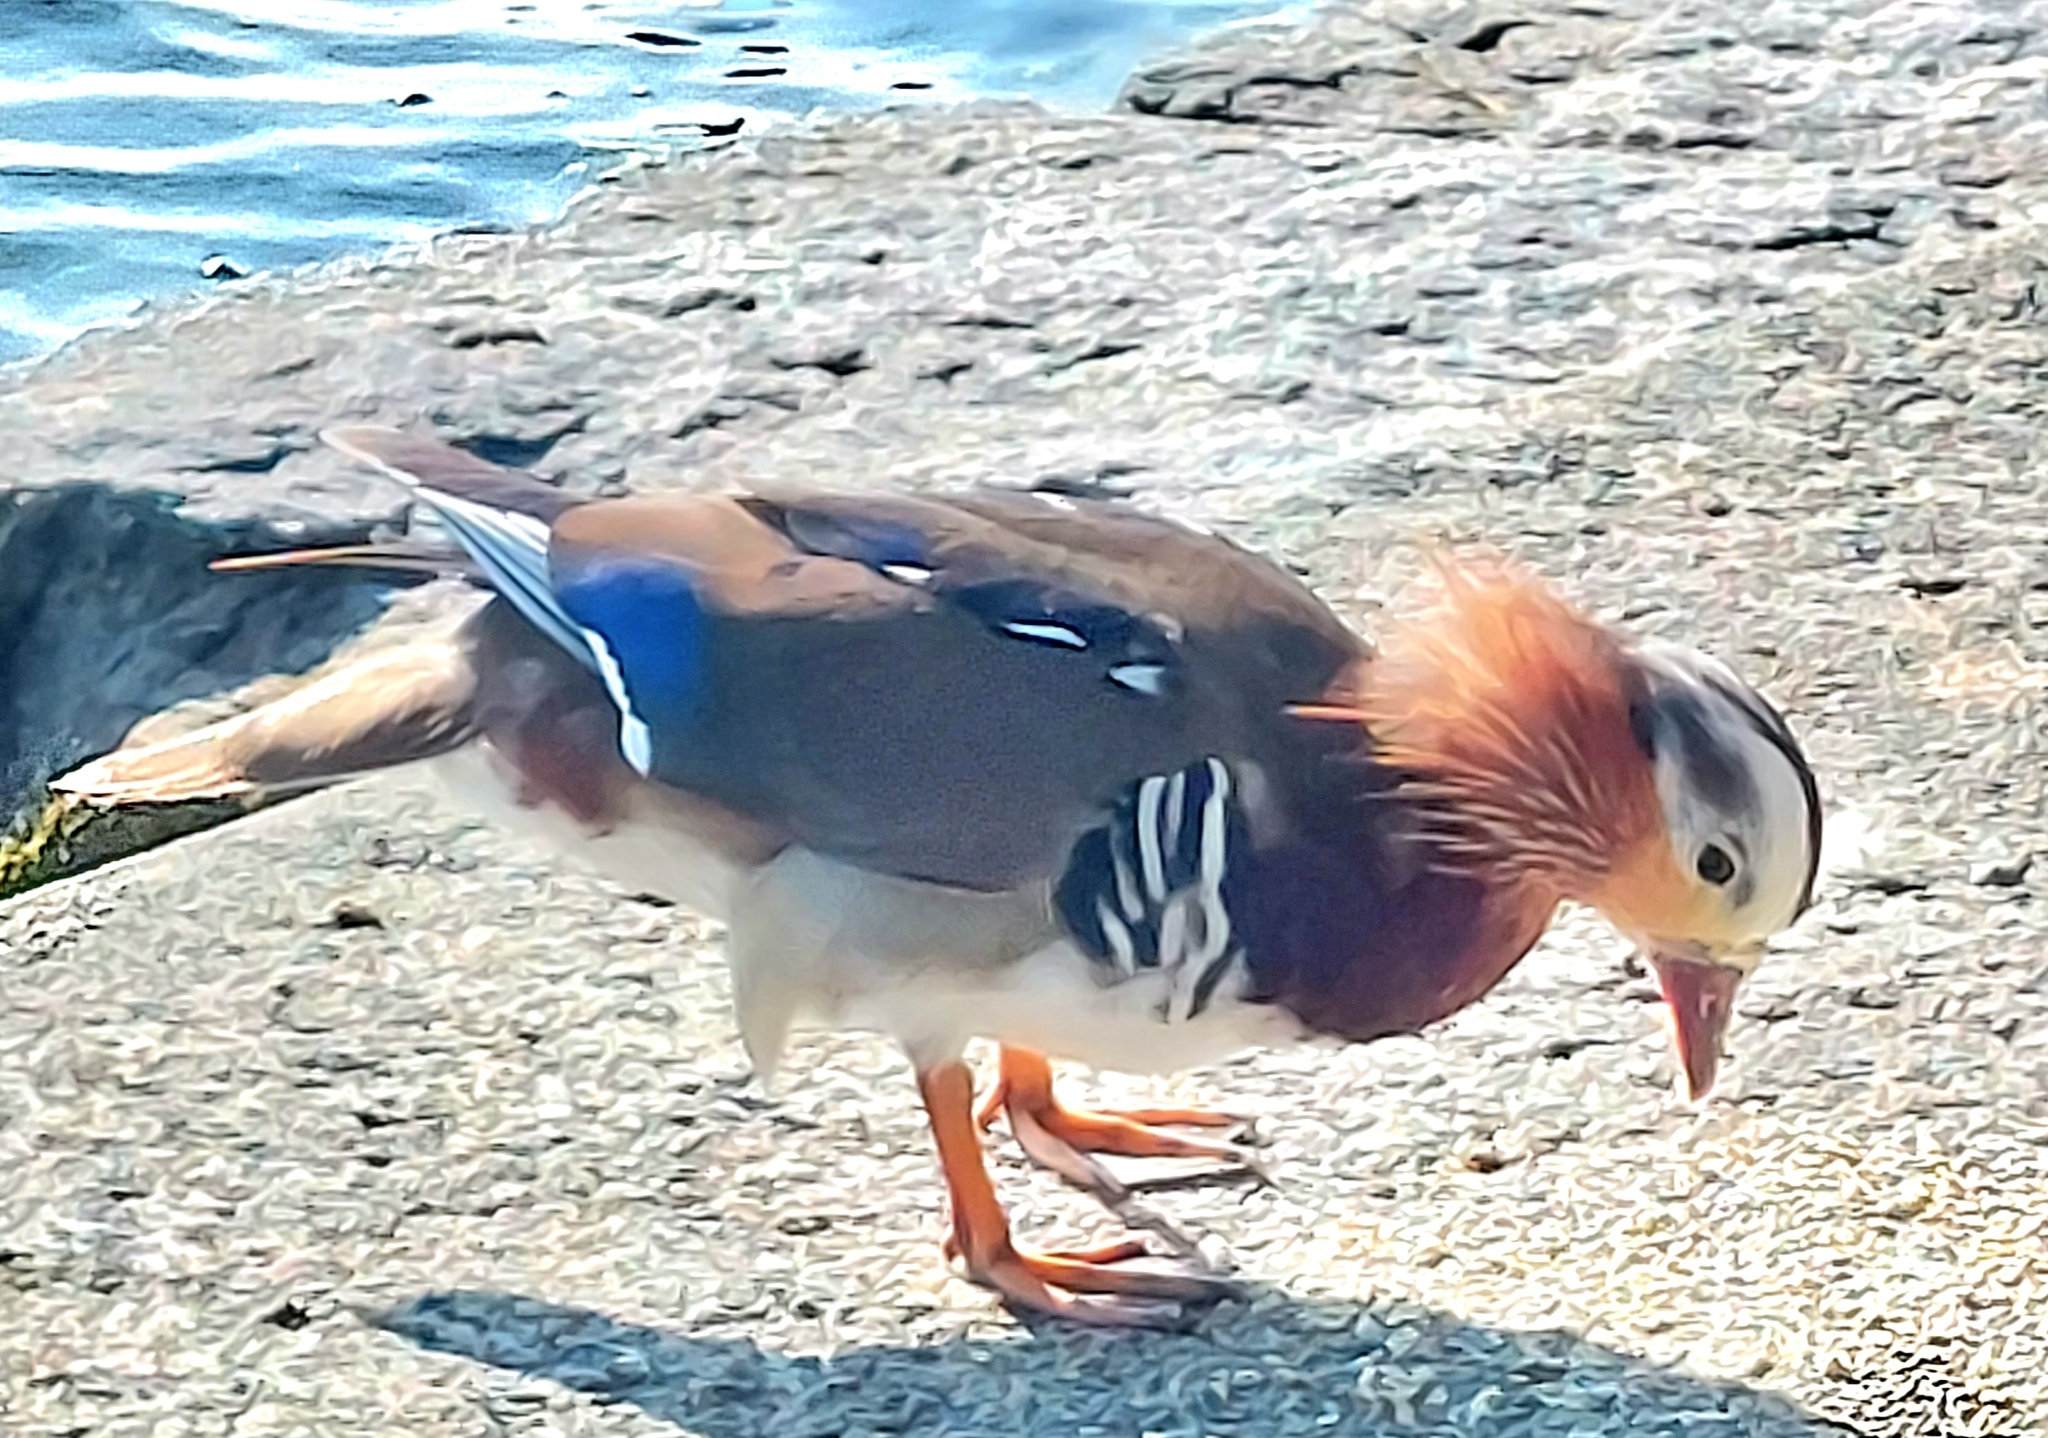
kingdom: Animalia
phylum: Chordata
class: Aves
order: Anseriformes
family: Anatidae
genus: Aix
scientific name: Aix galericulata
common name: Mandarin duck
